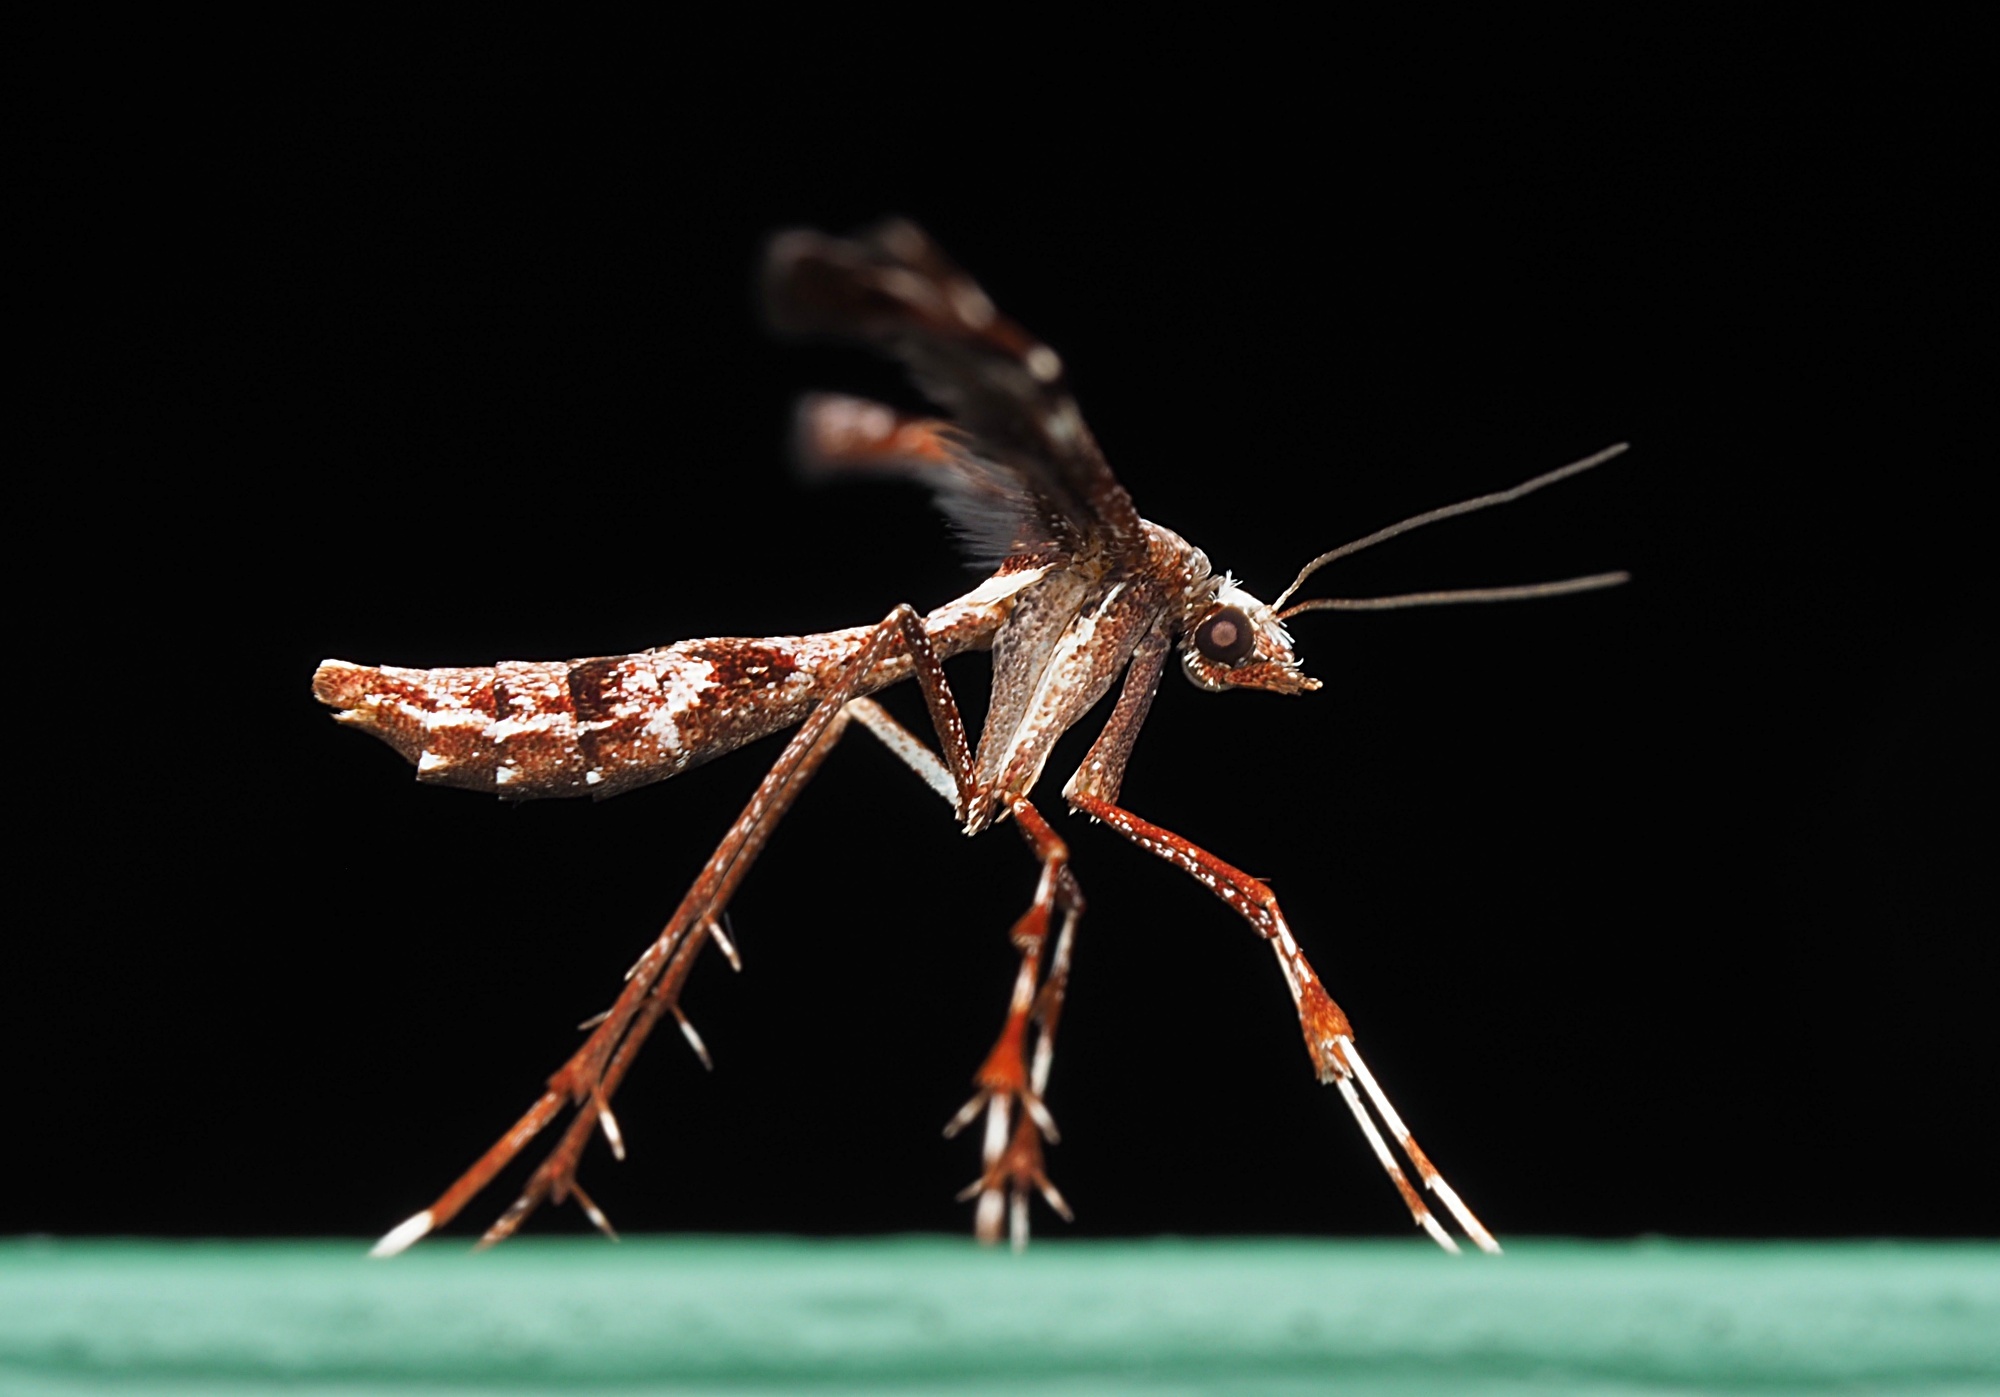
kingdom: Animalia
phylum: Arthropoda
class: Insecta
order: Lepidoptera
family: Pterophoridae
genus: Amblyptilia
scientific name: Amblyptilia falcatalis
